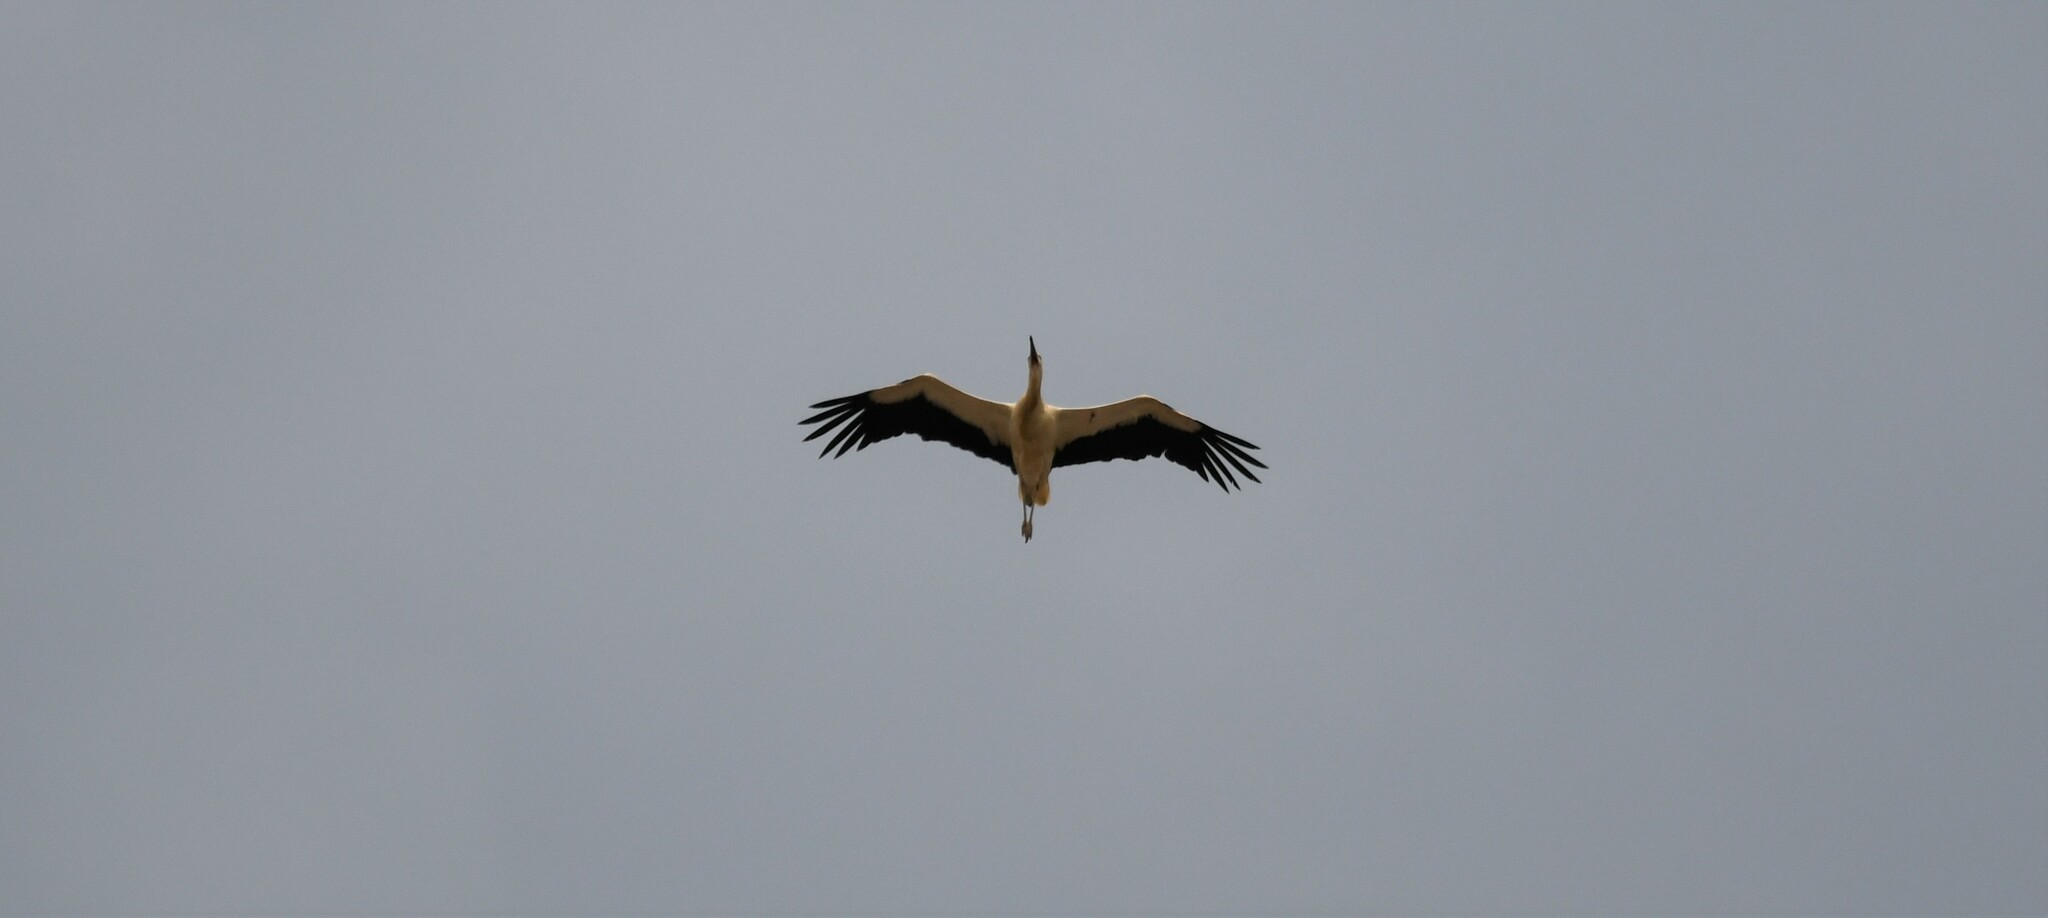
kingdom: Animalia
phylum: Chordata
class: Aves
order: Ciconiiformes
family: Ciconiidae
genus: Ciconia
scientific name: Ciconia ciconia
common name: White stork
